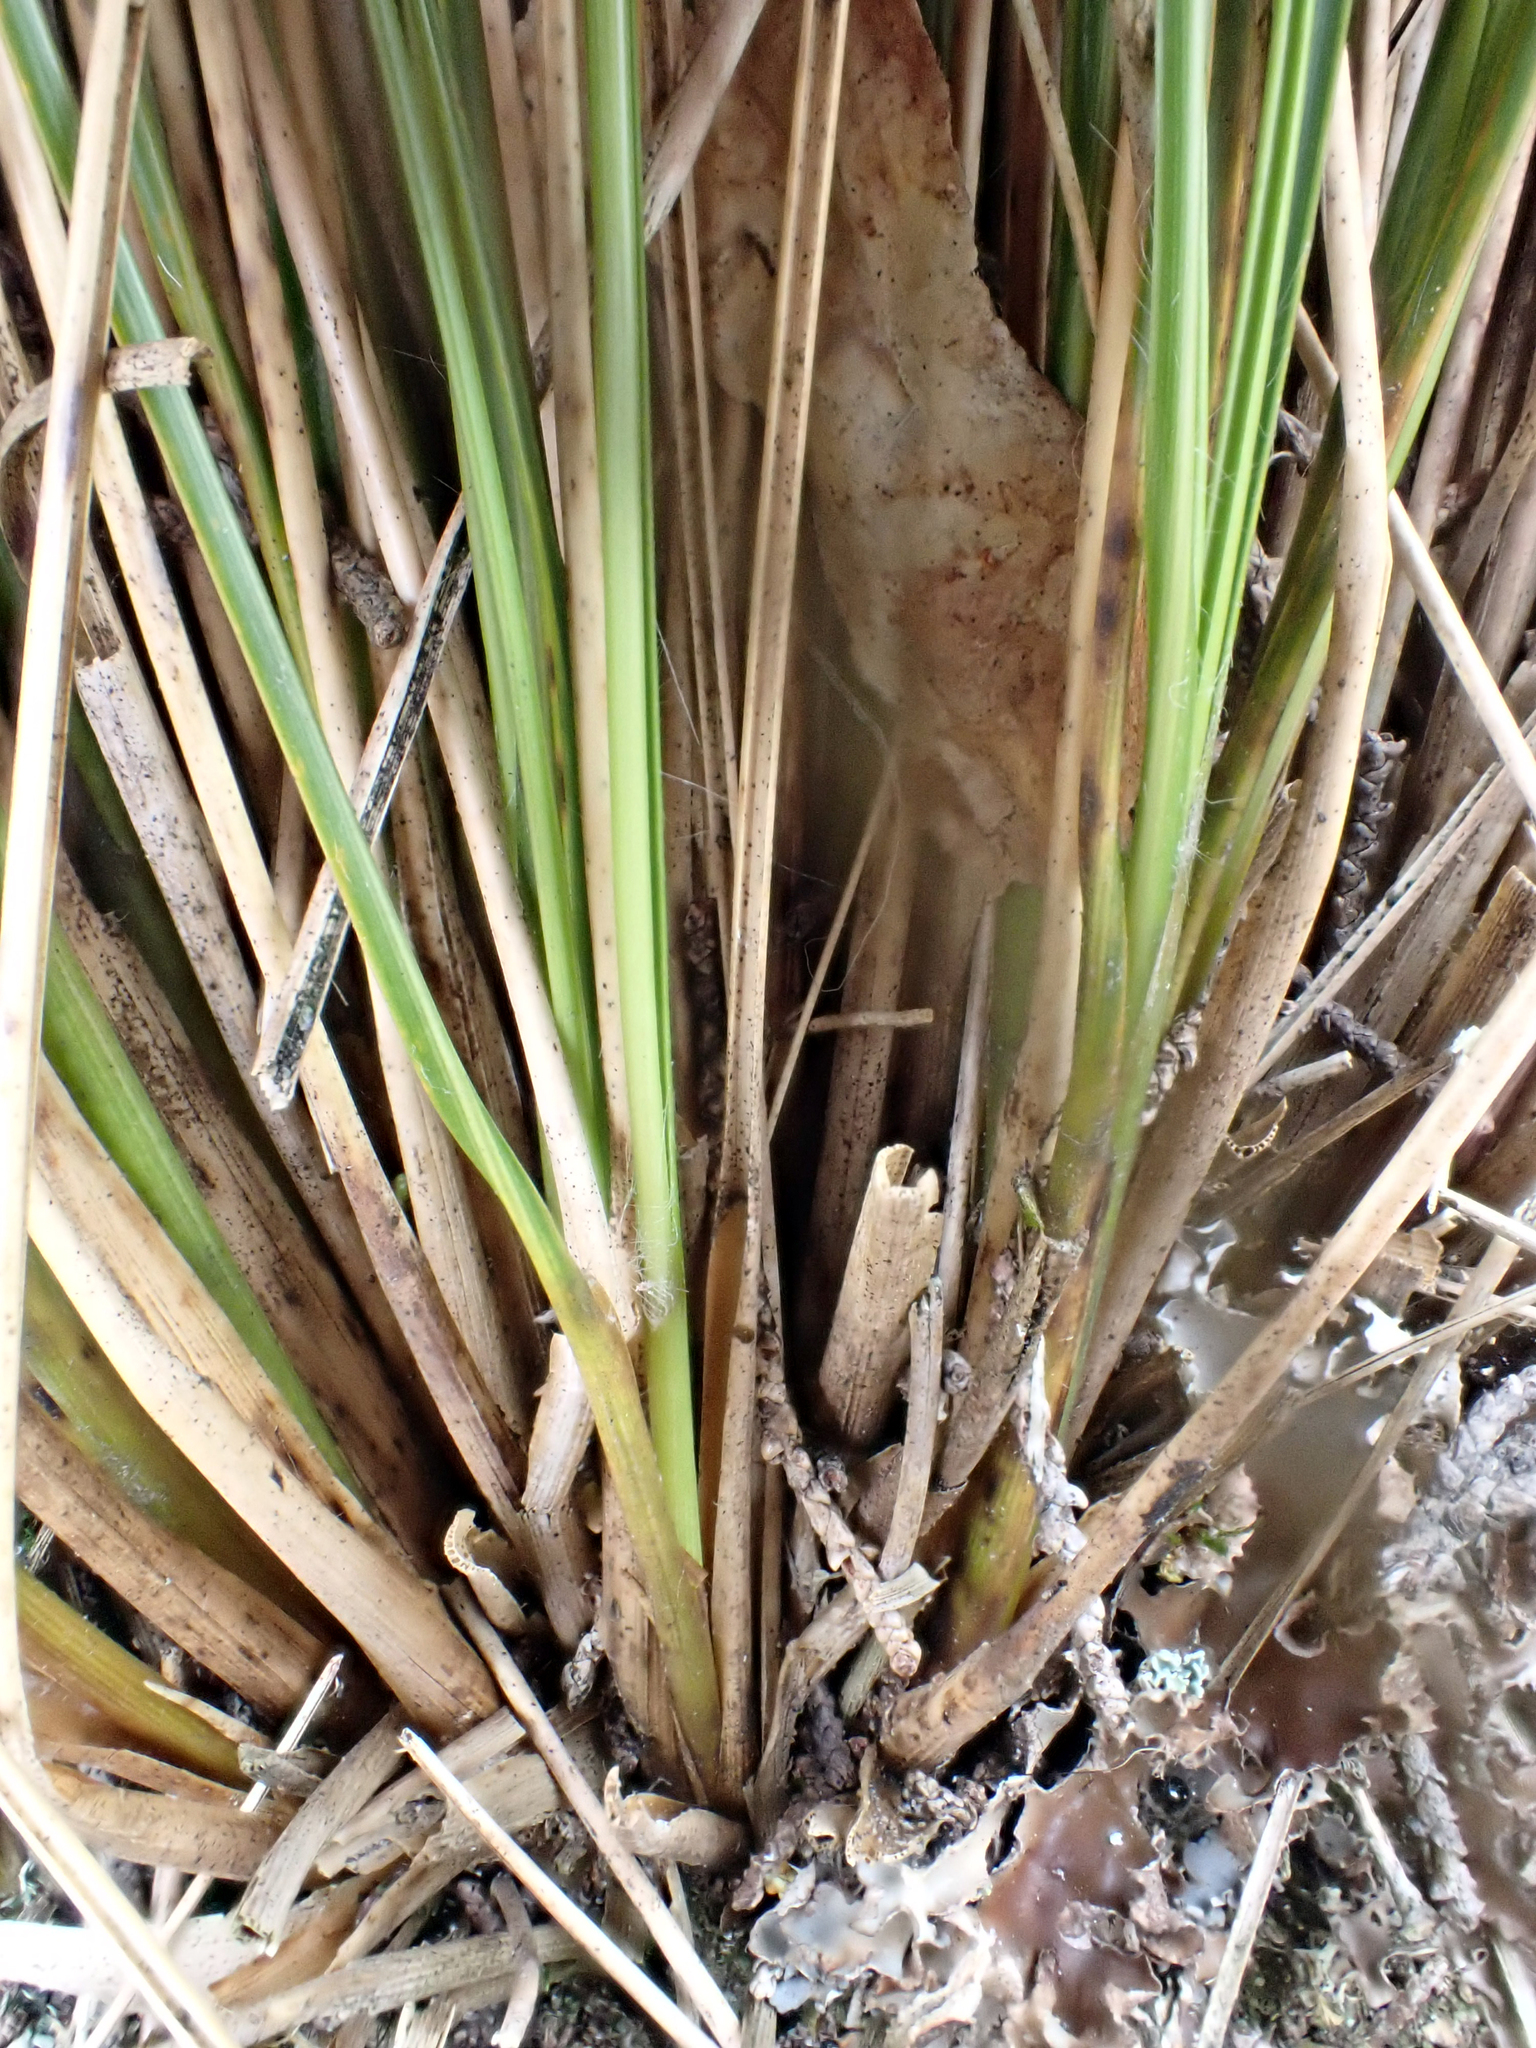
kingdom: Plantae
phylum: Tracheophyta
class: Liliopsida
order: Poales
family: Poaceae
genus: Chionochloa
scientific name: Chionochloa juncea
